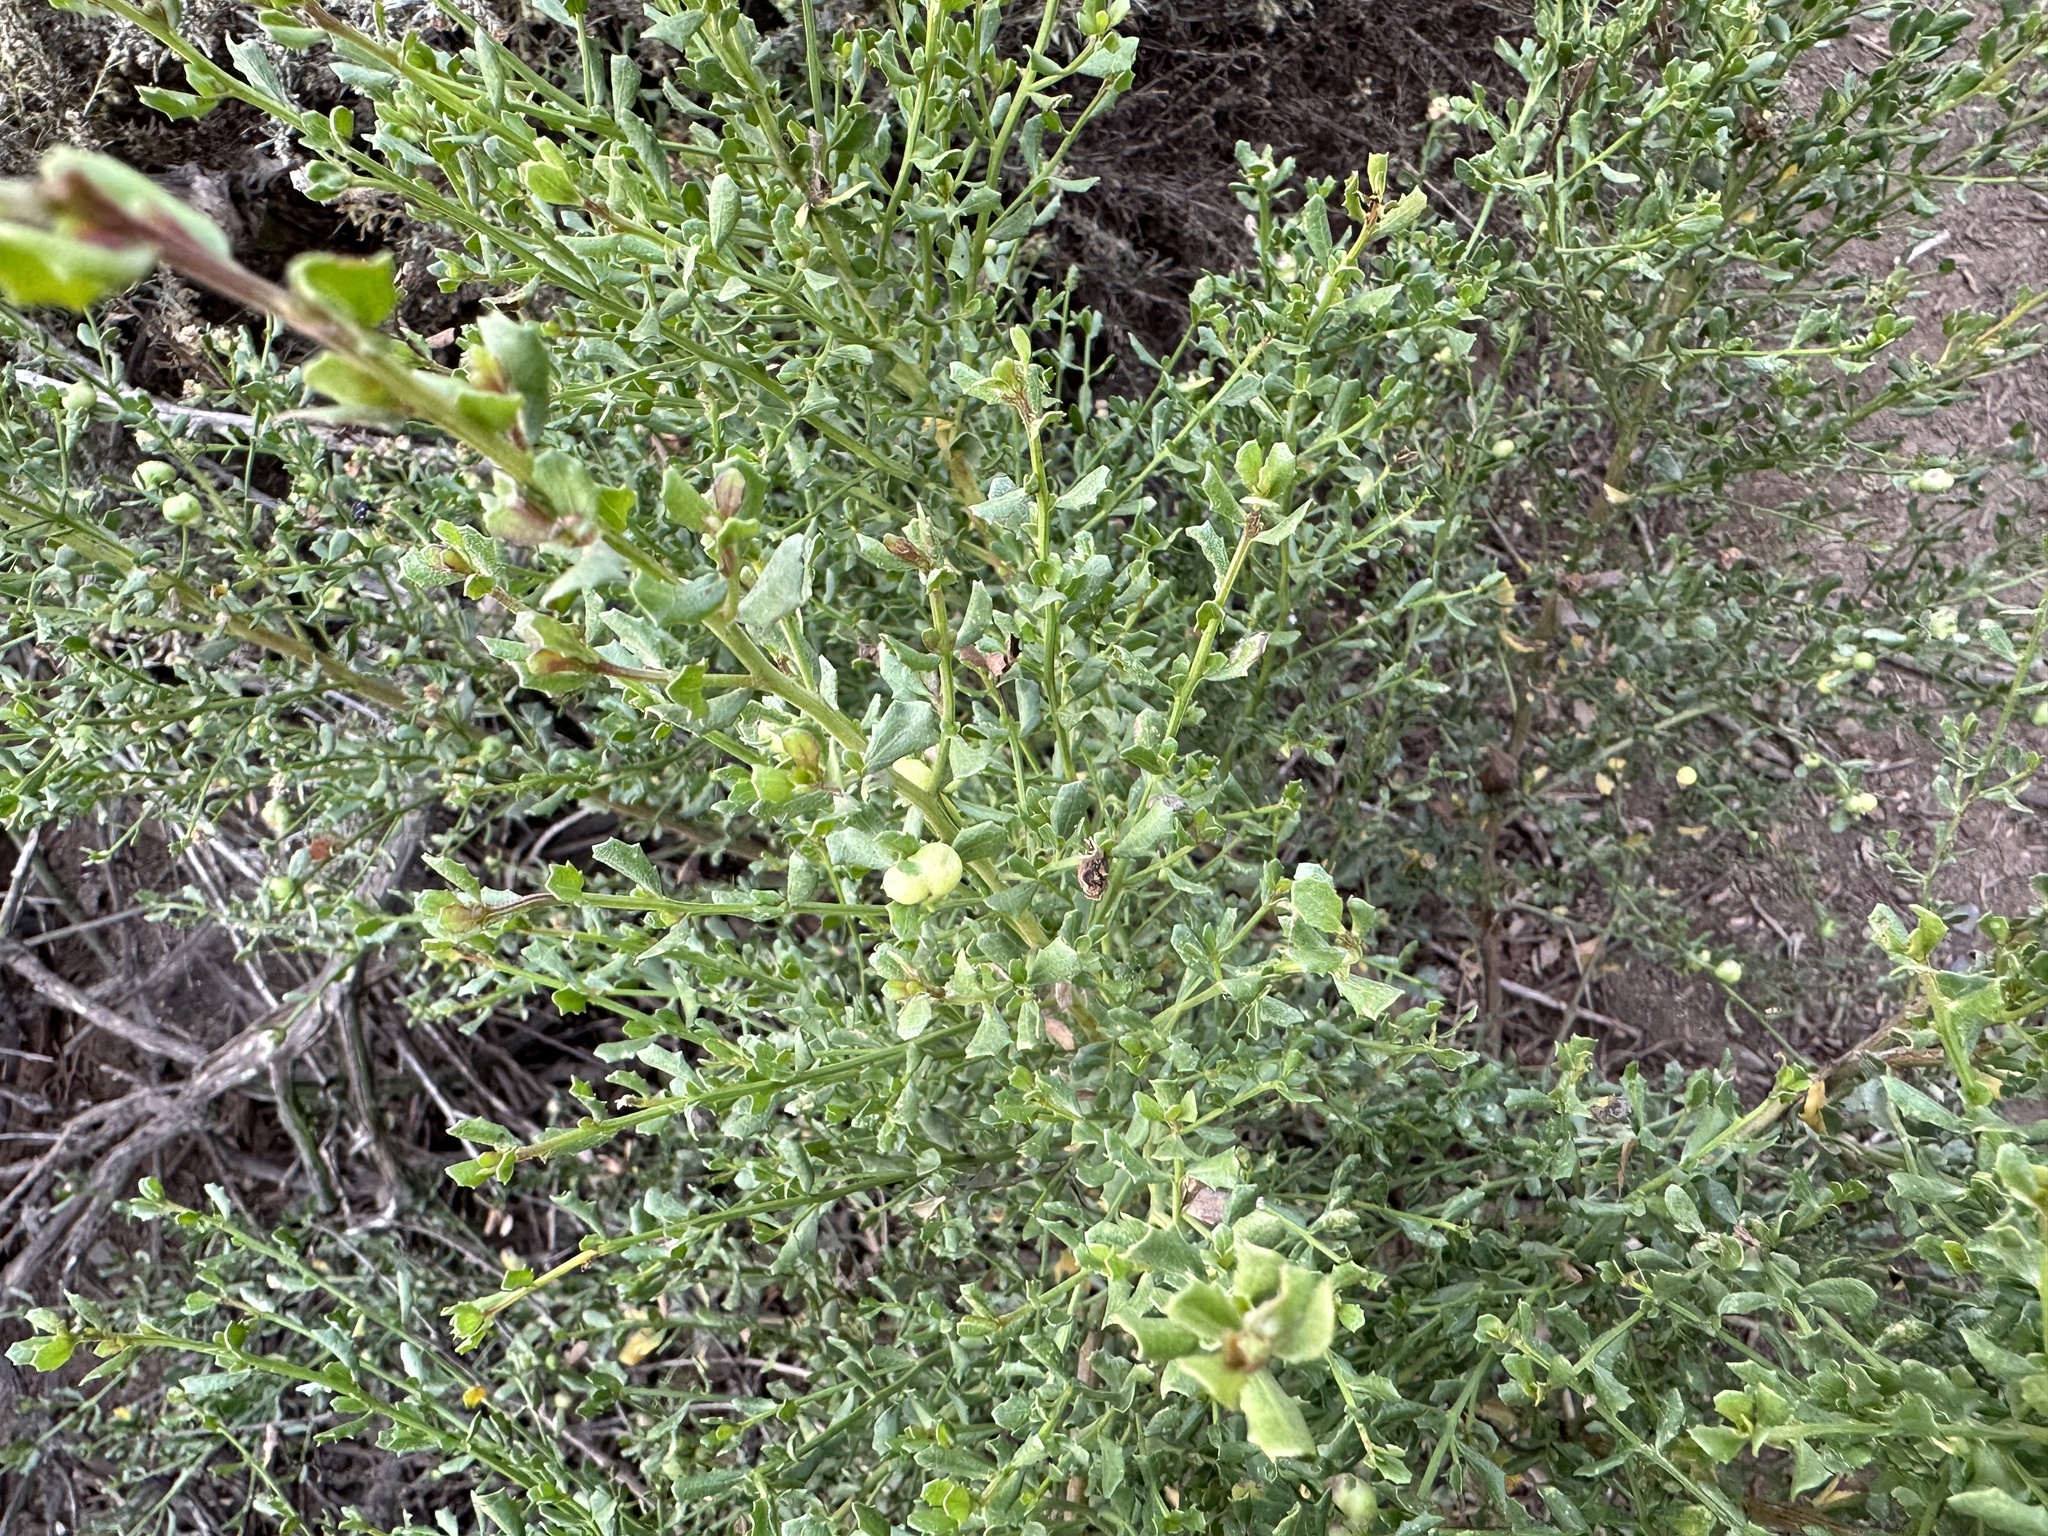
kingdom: Animalia
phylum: Arthropoda
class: Insecta
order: Diptera
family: Cecidomyiidae
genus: Rhopalomyia
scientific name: Rhopalomyia californica
